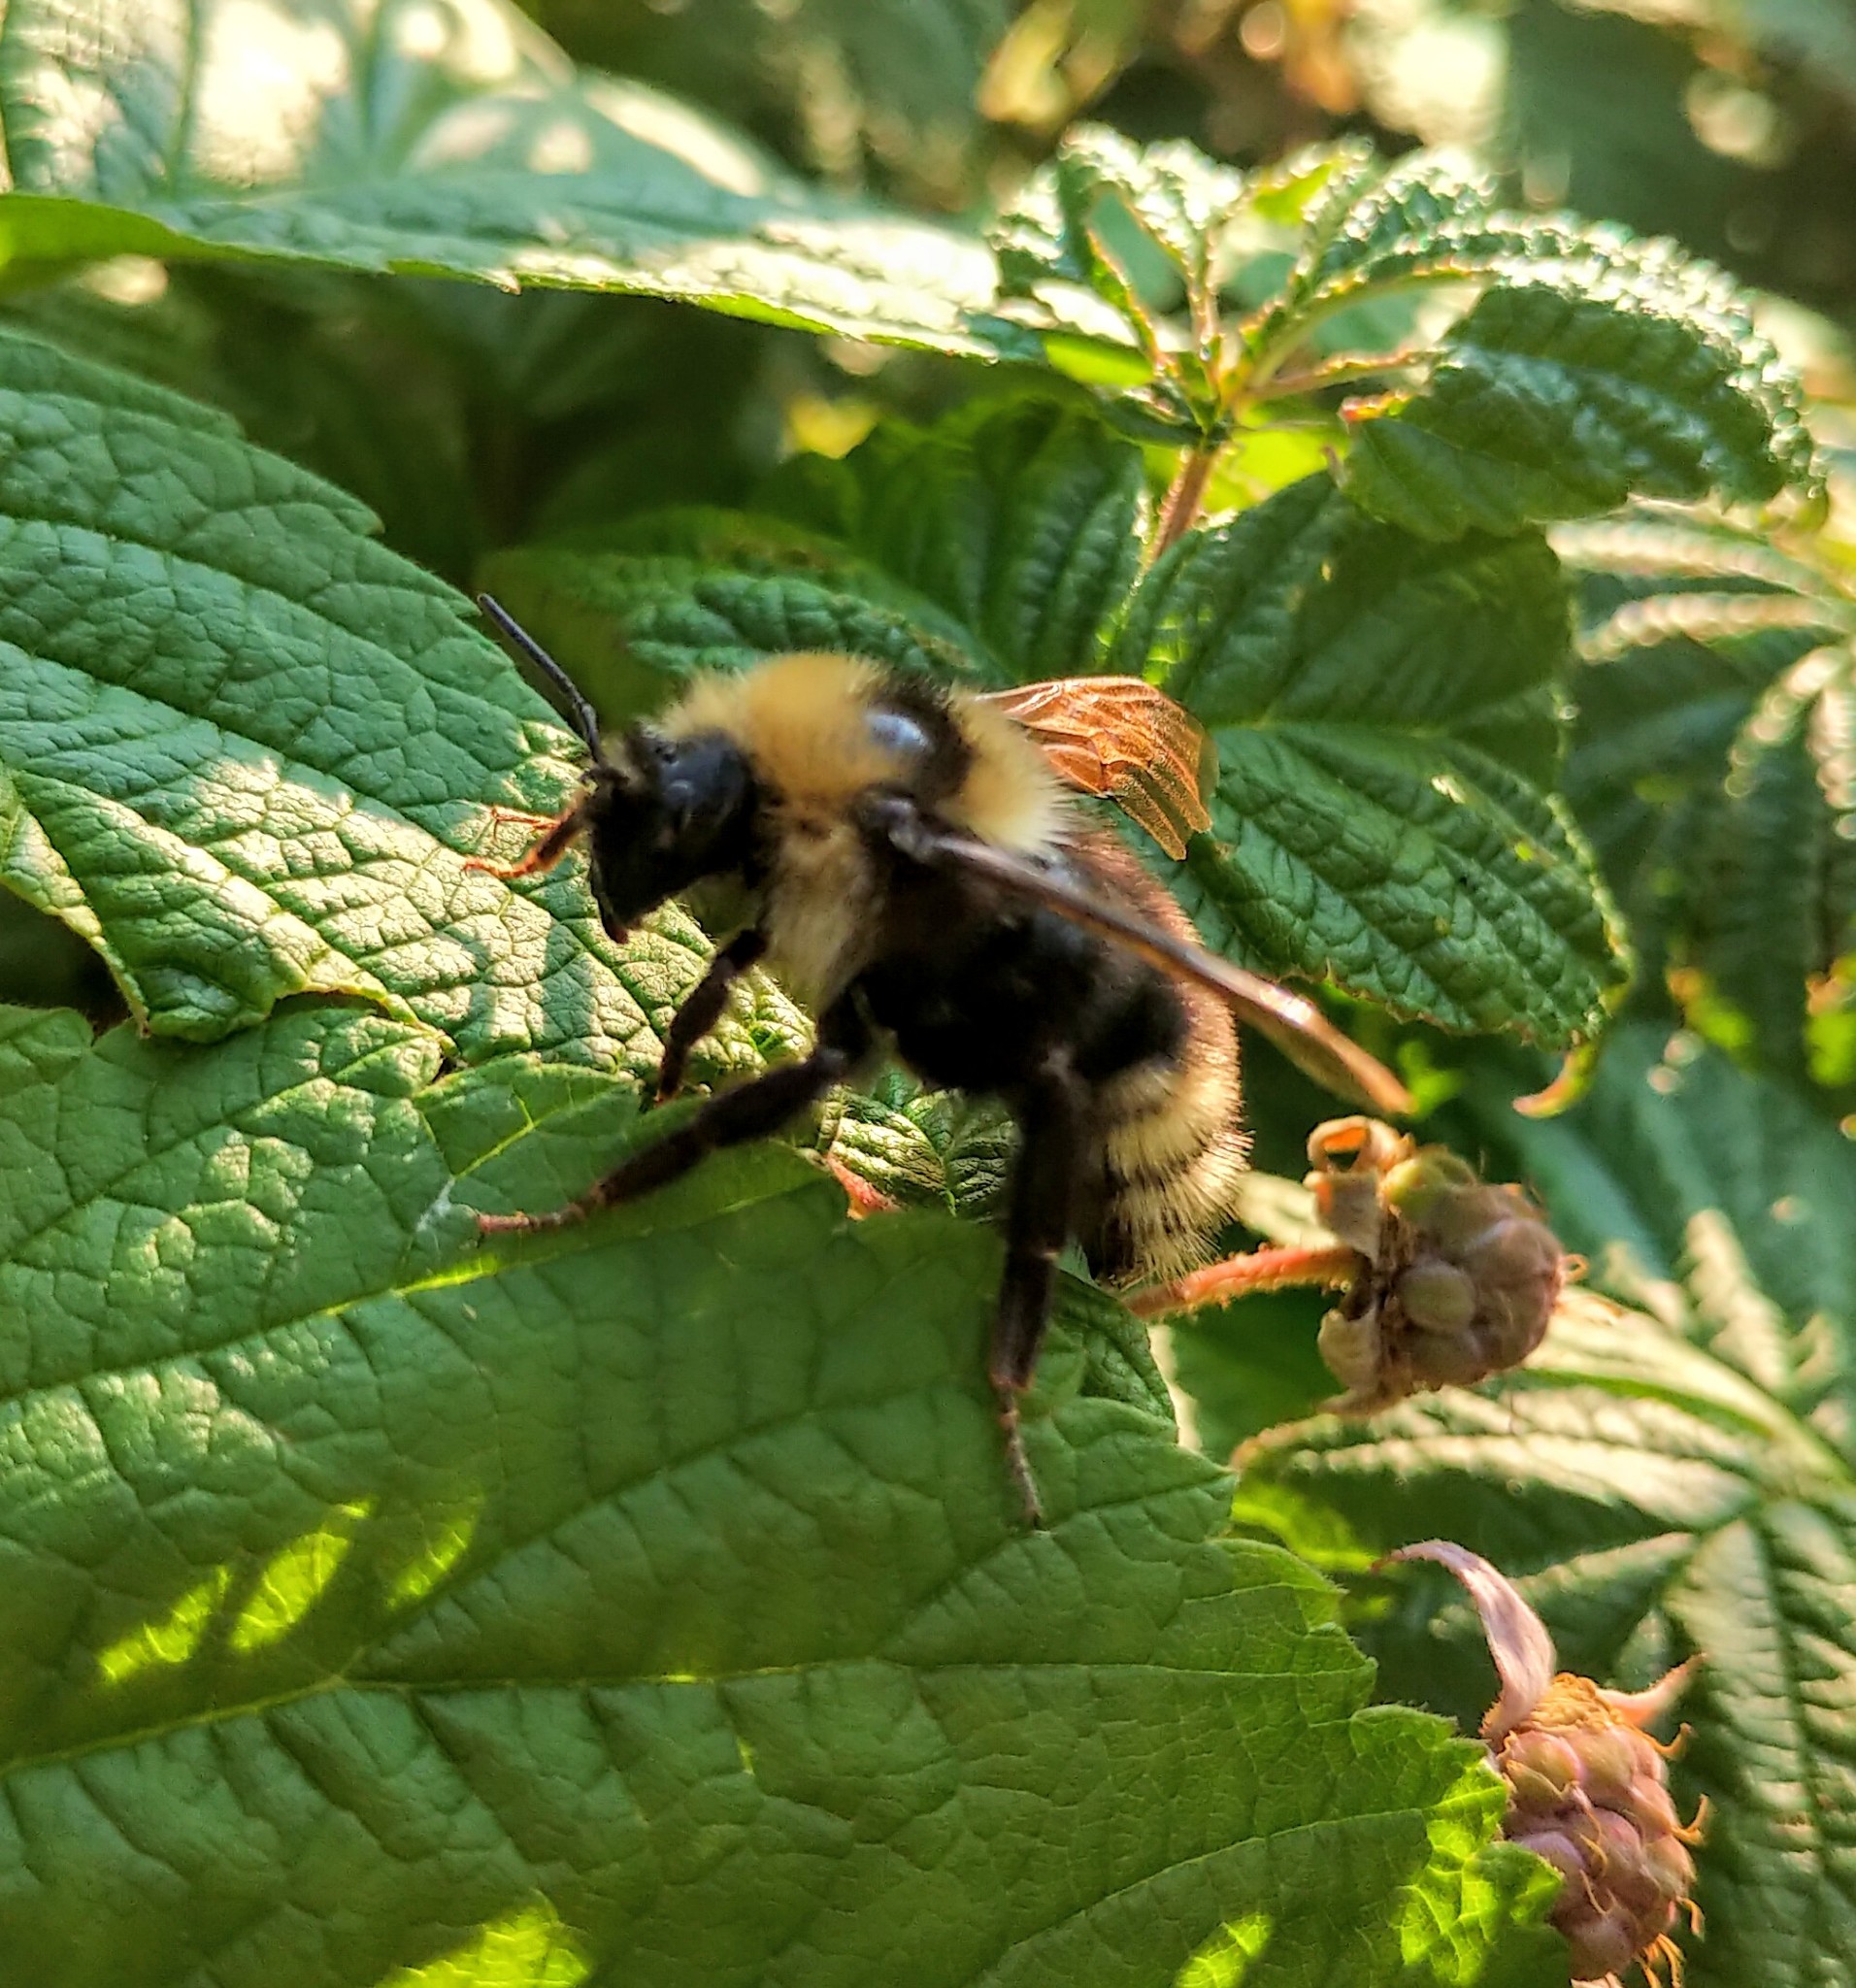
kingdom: Animalia
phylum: Arthropoda
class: Insecta
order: Hymenoptera
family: Apidae
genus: Bombus
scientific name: Bombus insularis
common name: Indiscriminate cuckoo bumble bee
